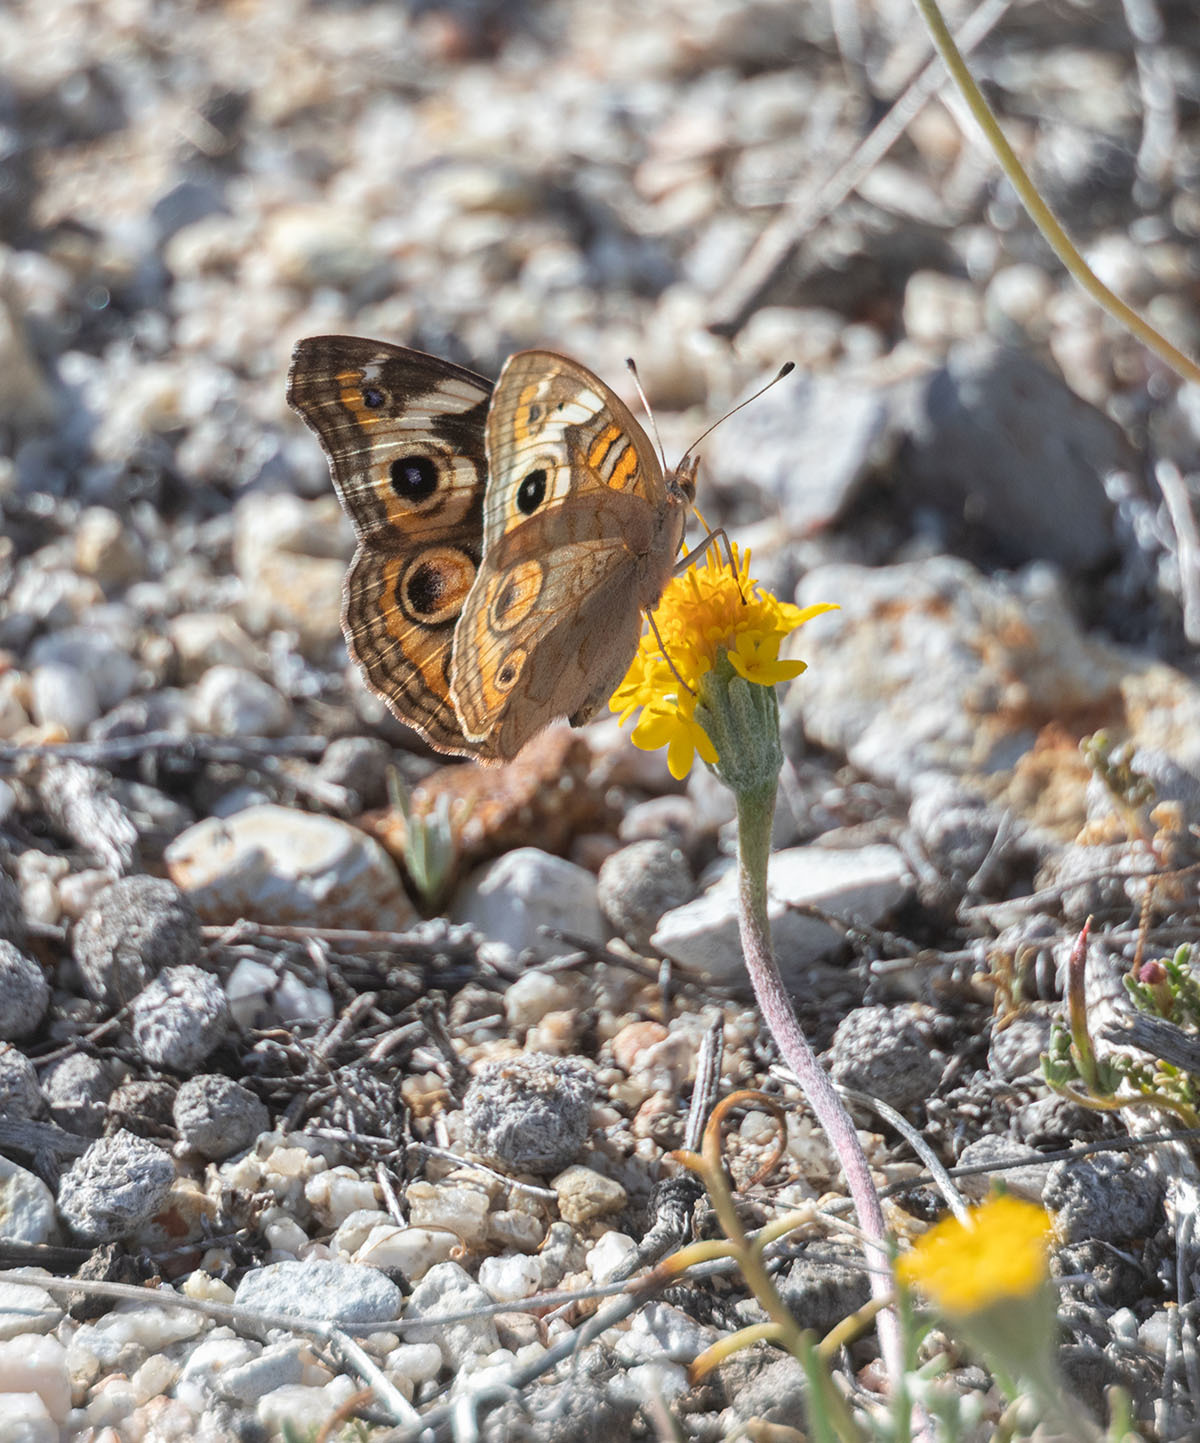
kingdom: Animalia
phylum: Arthropoda
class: Insecta
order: Lepidoptera
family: Nymphalidae
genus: Junonia
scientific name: Junonia grisea
